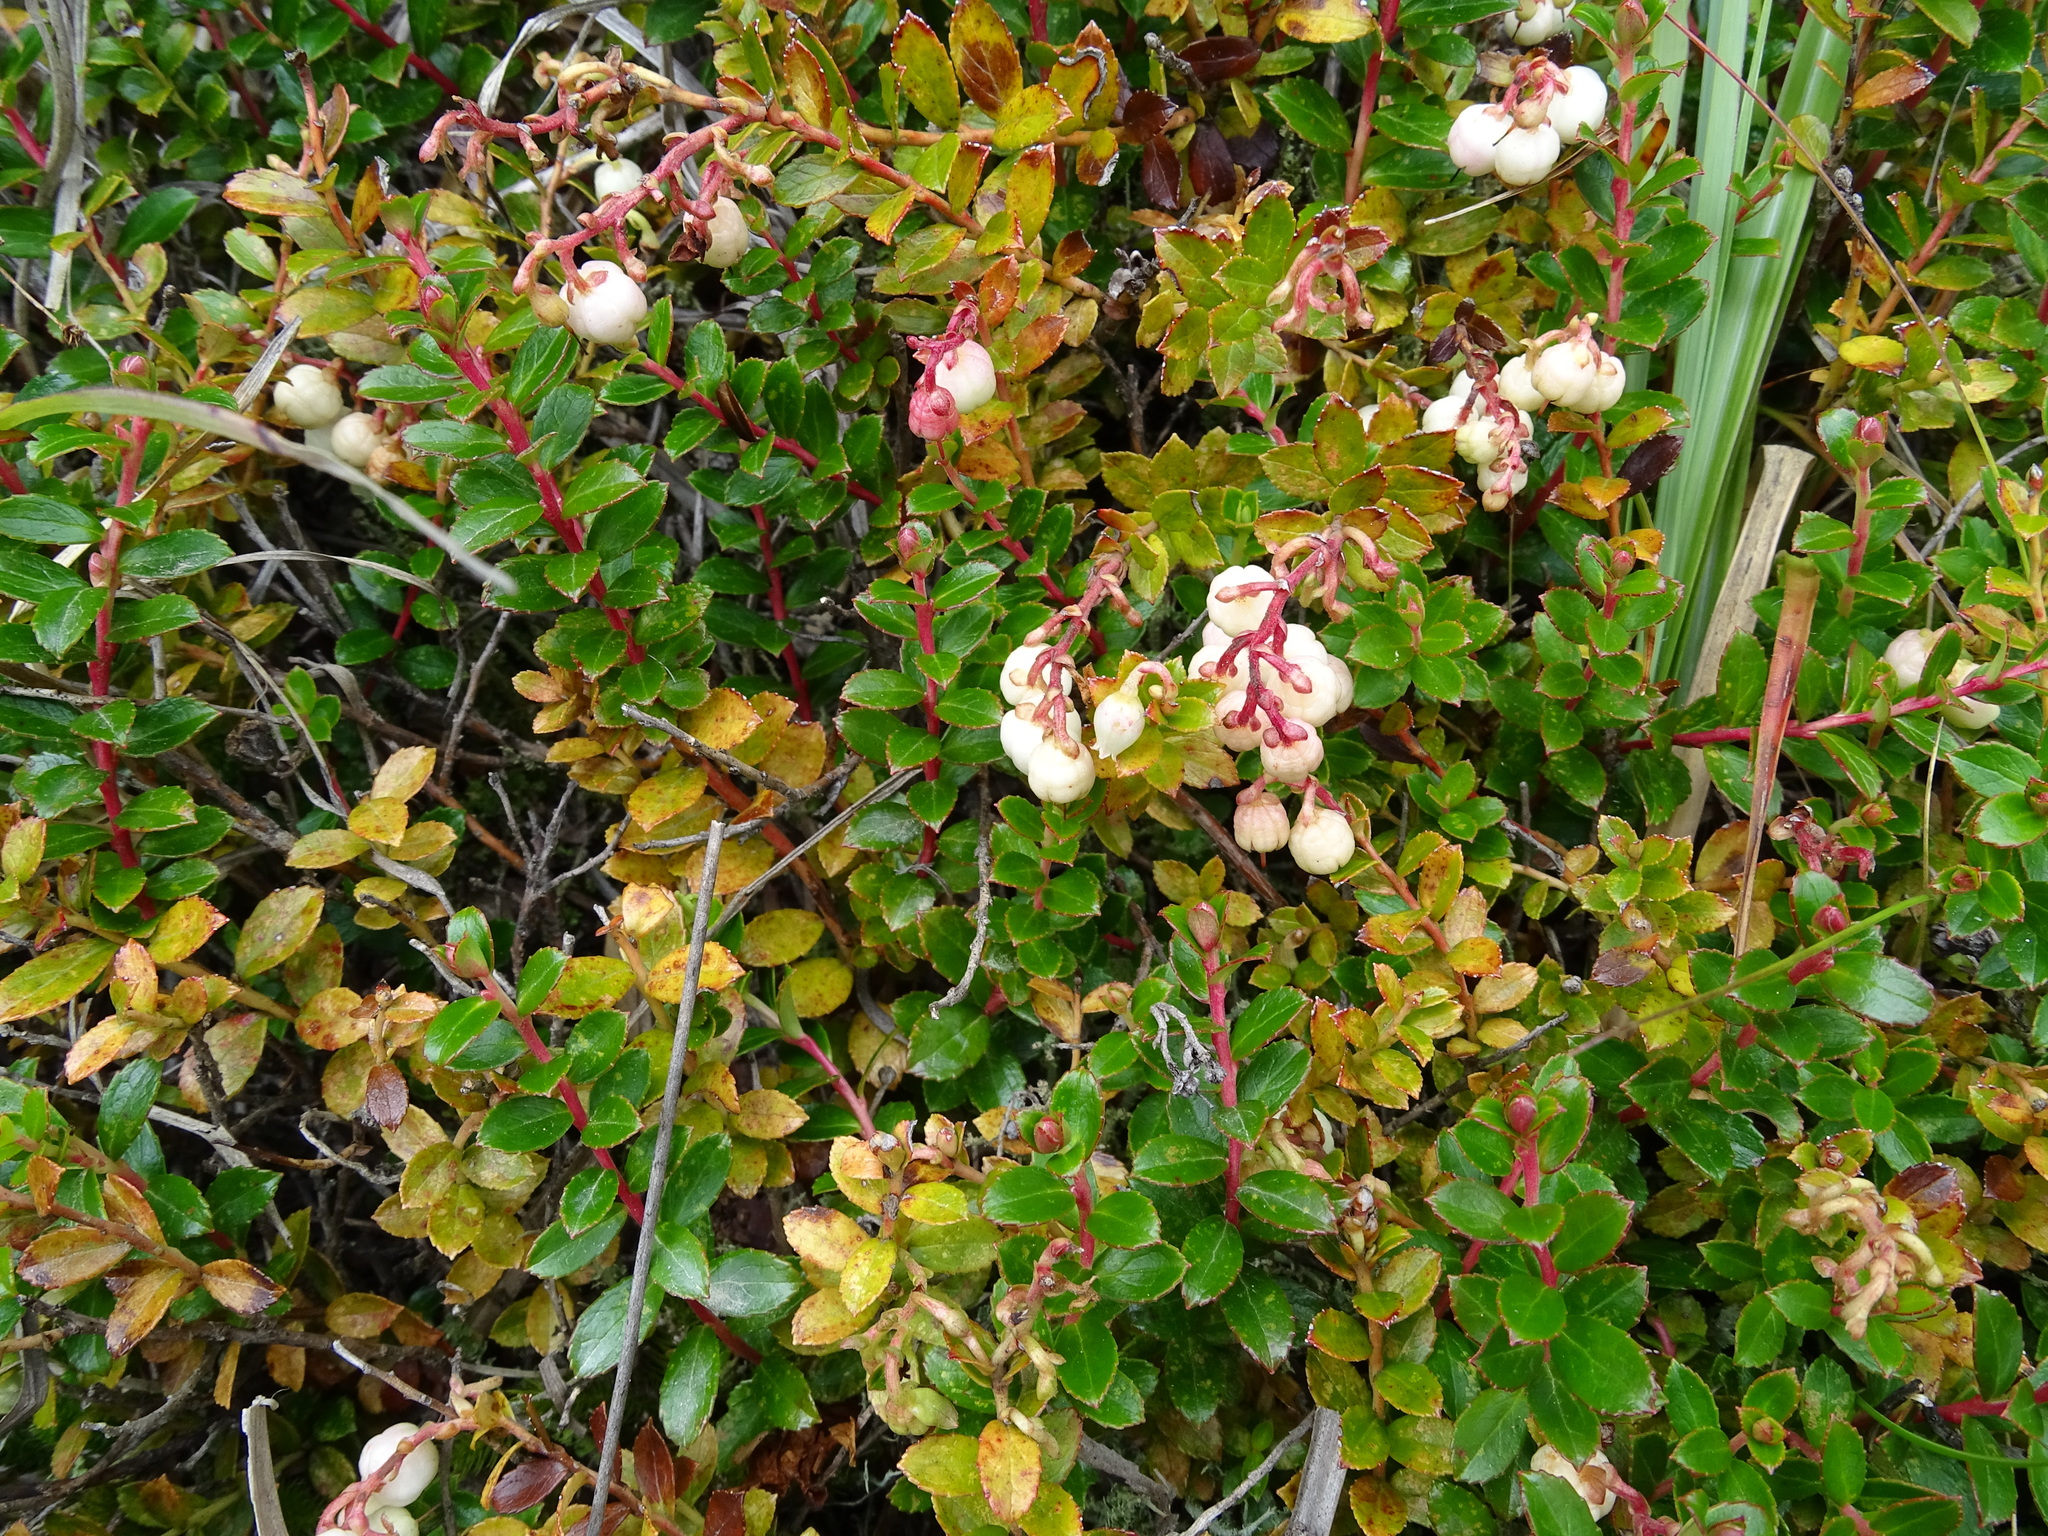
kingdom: Plantae
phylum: Tracheophyta
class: Magnoliopsida
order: Ericales
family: Ericaceae
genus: Gaultheria
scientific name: Gaultheria borneensis
